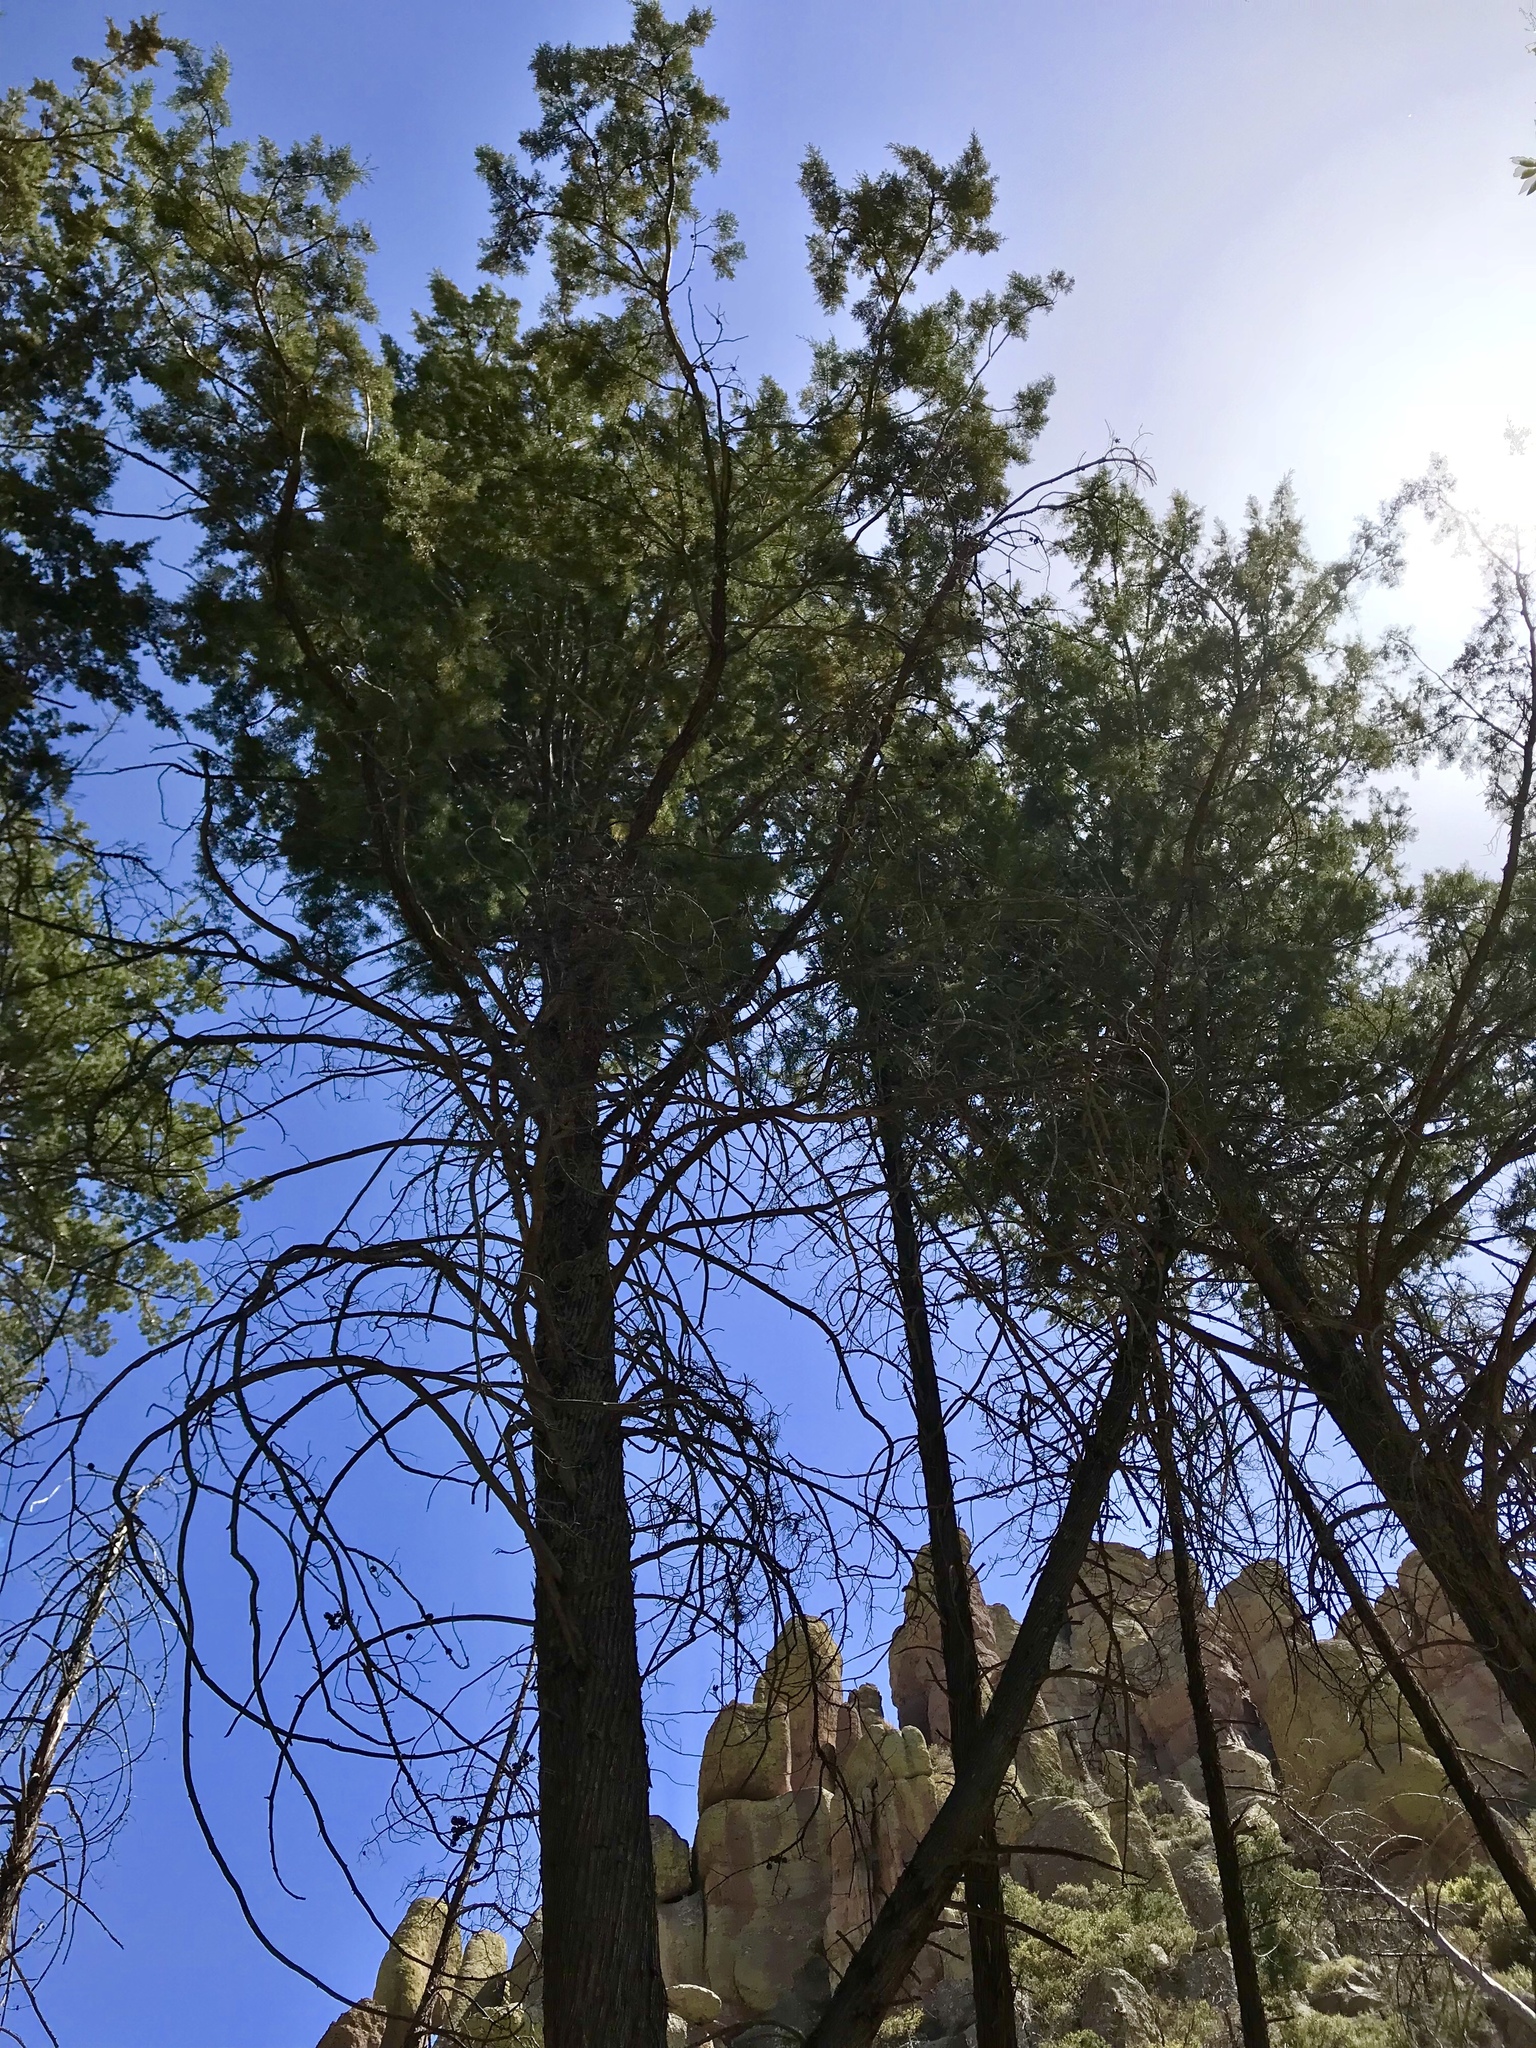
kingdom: Plantae
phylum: Tracheophyta
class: Pinopsida
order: Pinales
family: Cupressaceae
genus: Cupressus
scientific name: Cupressus arizonica
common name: Arizona cypress
